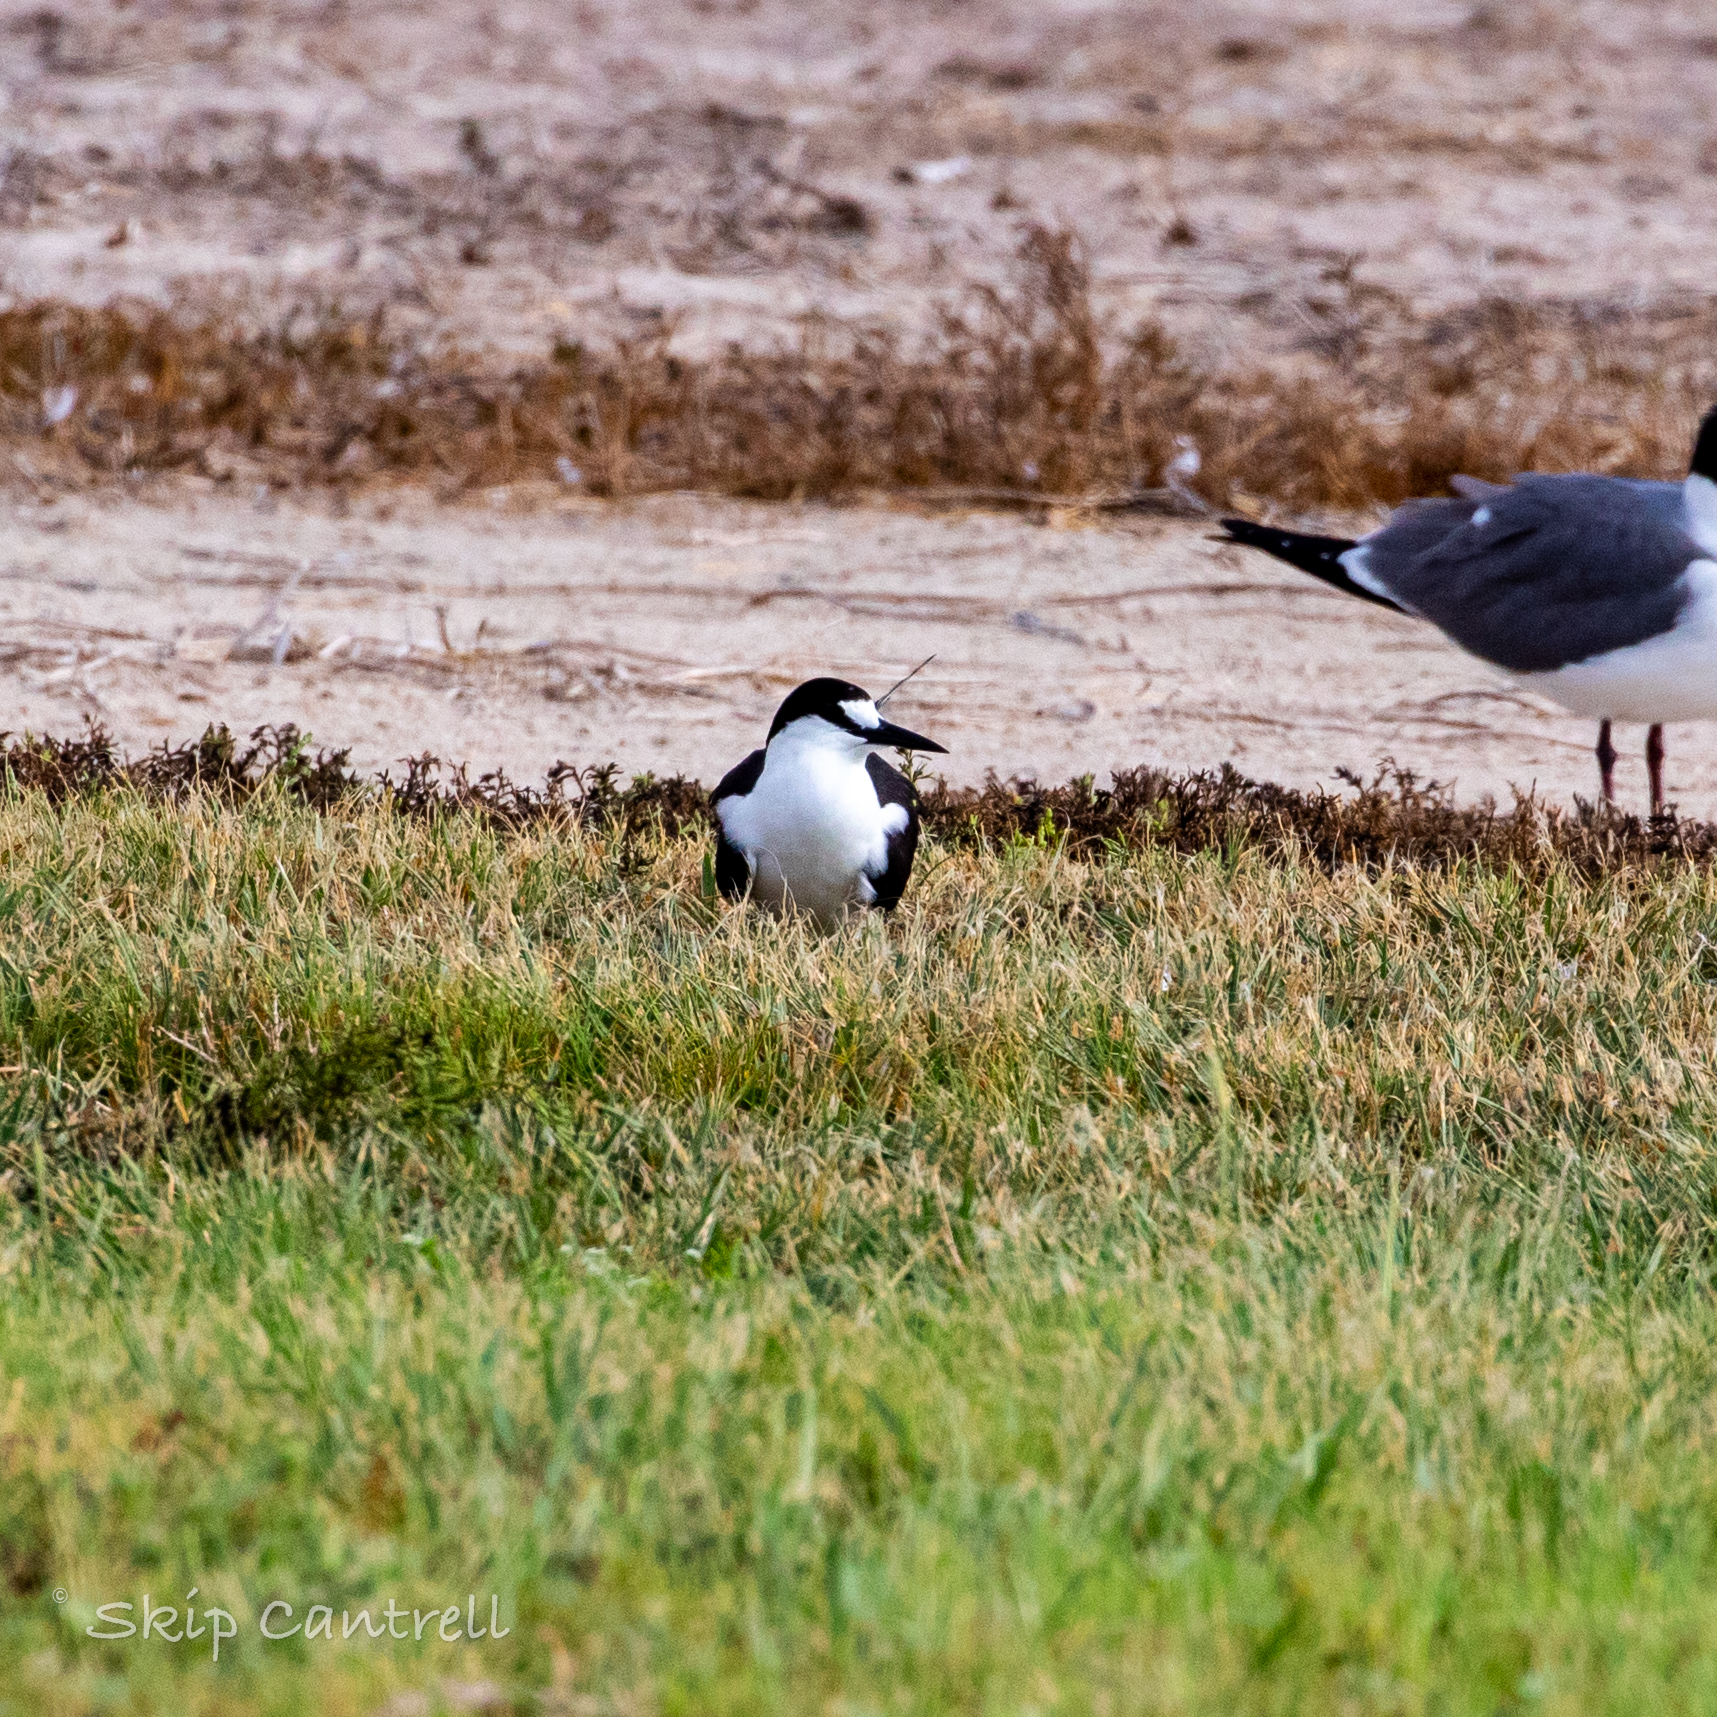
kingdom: Animalia
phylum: Chordata
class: Aves
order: Charadriiformes
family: Laridae
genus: Onychoprion
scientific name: Onychoprion fuscatus
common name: Sooty tern
